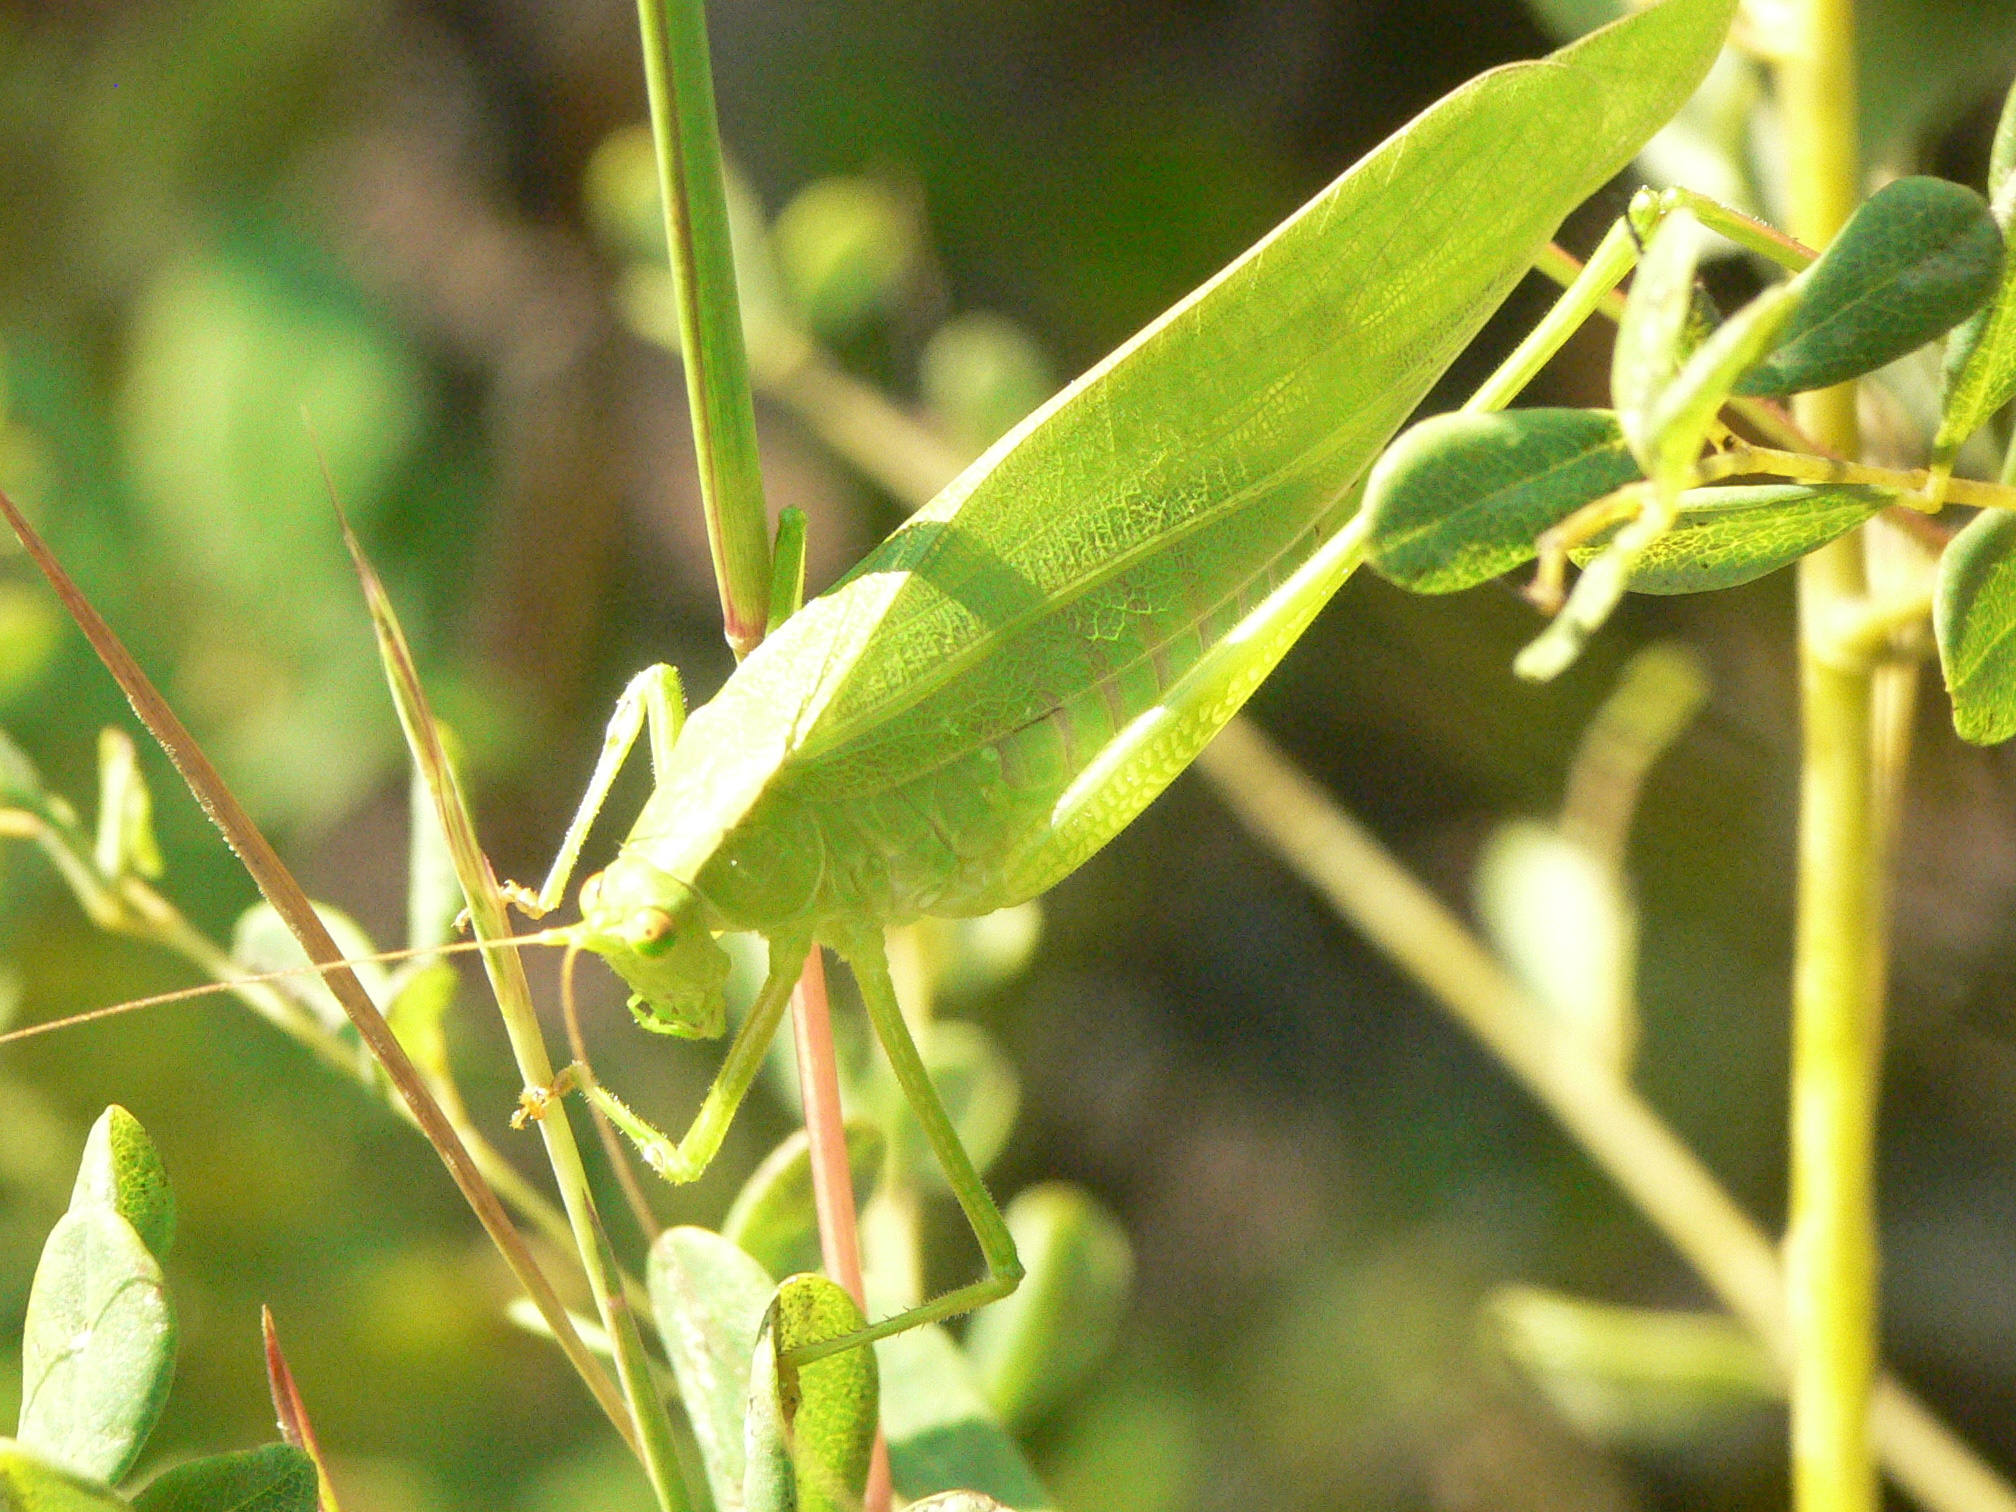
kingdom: Animalia
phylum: Arthropoda
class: Insecta
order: Orthoptera
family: Tettigoniidae
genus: Scudderia
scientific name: Scudderia curvicauda
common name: Curve-tailed bush katydid
